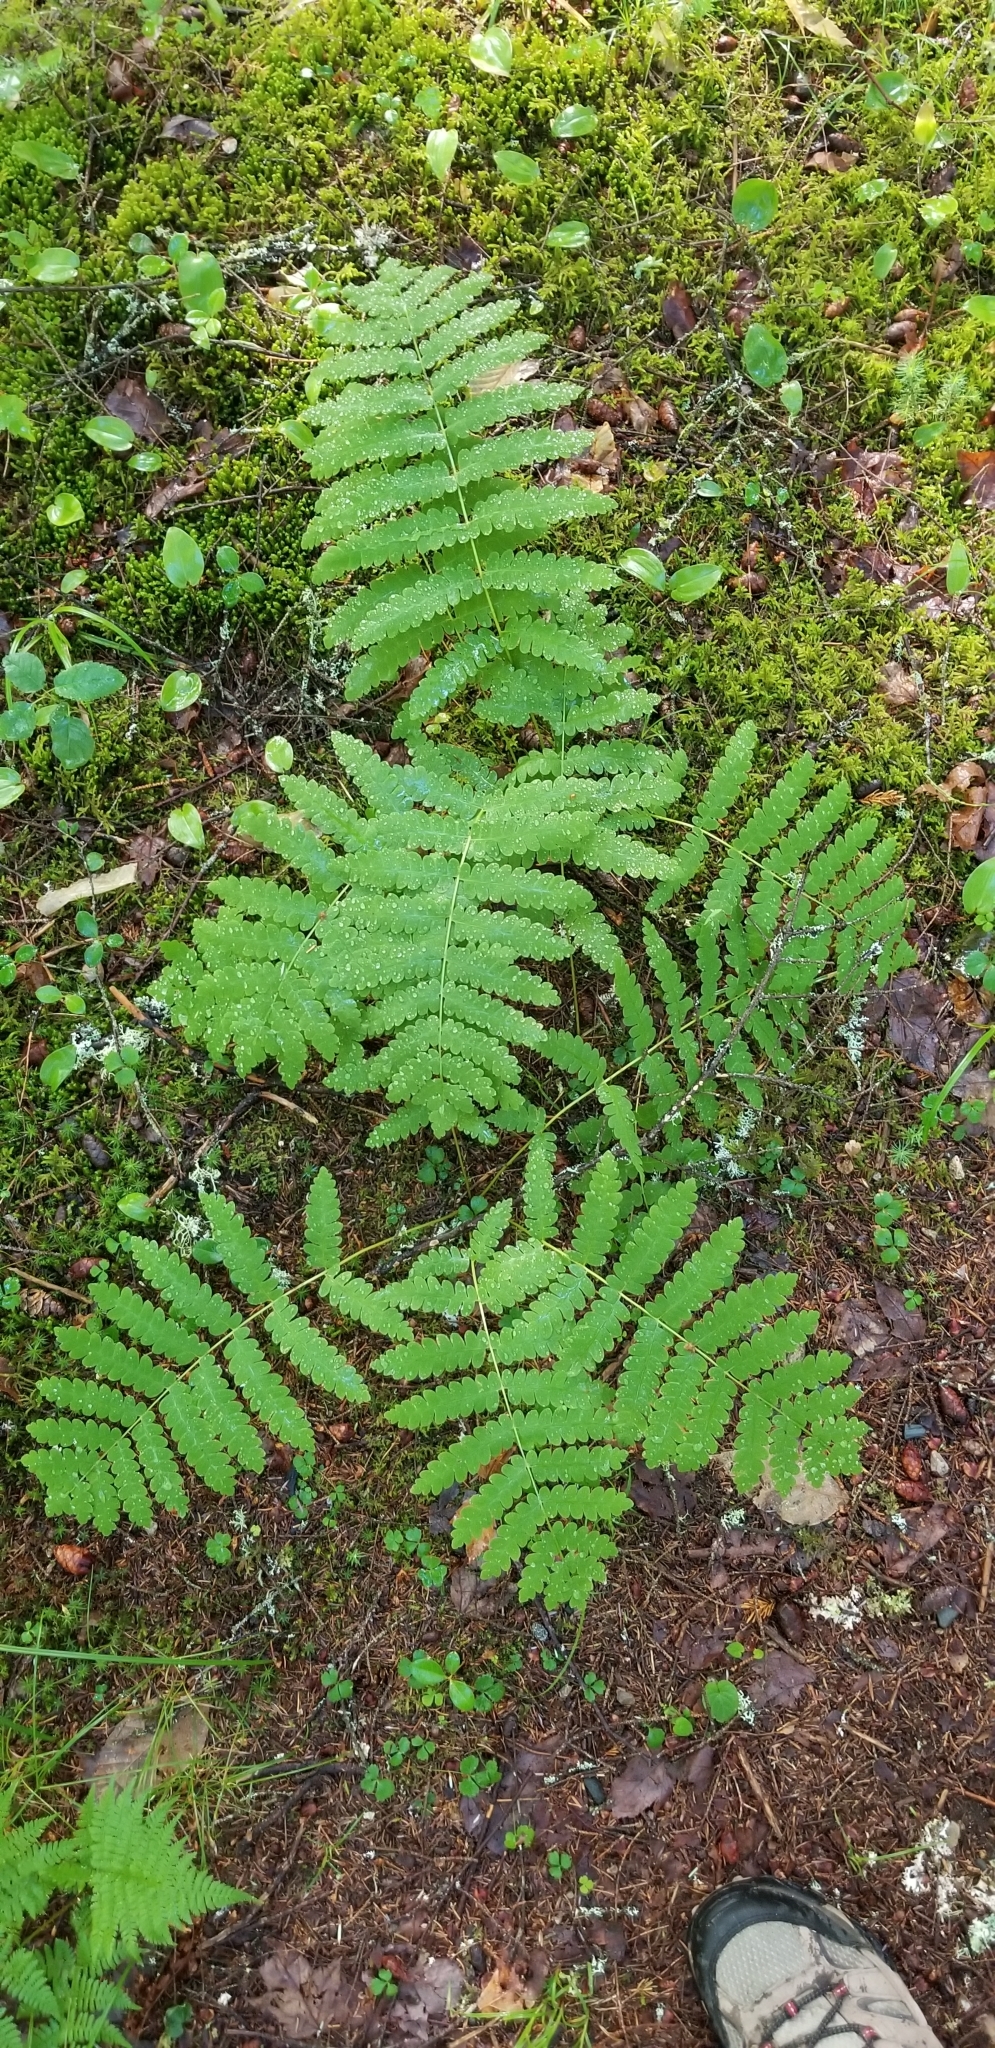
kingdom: Plantae
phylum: Tracheophyta
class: Polypodiopsida
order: Osmundales
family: Osmundaceae
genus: Claytosmunda
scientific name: Claytosmunda claytoniana
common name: Clayton's fern
